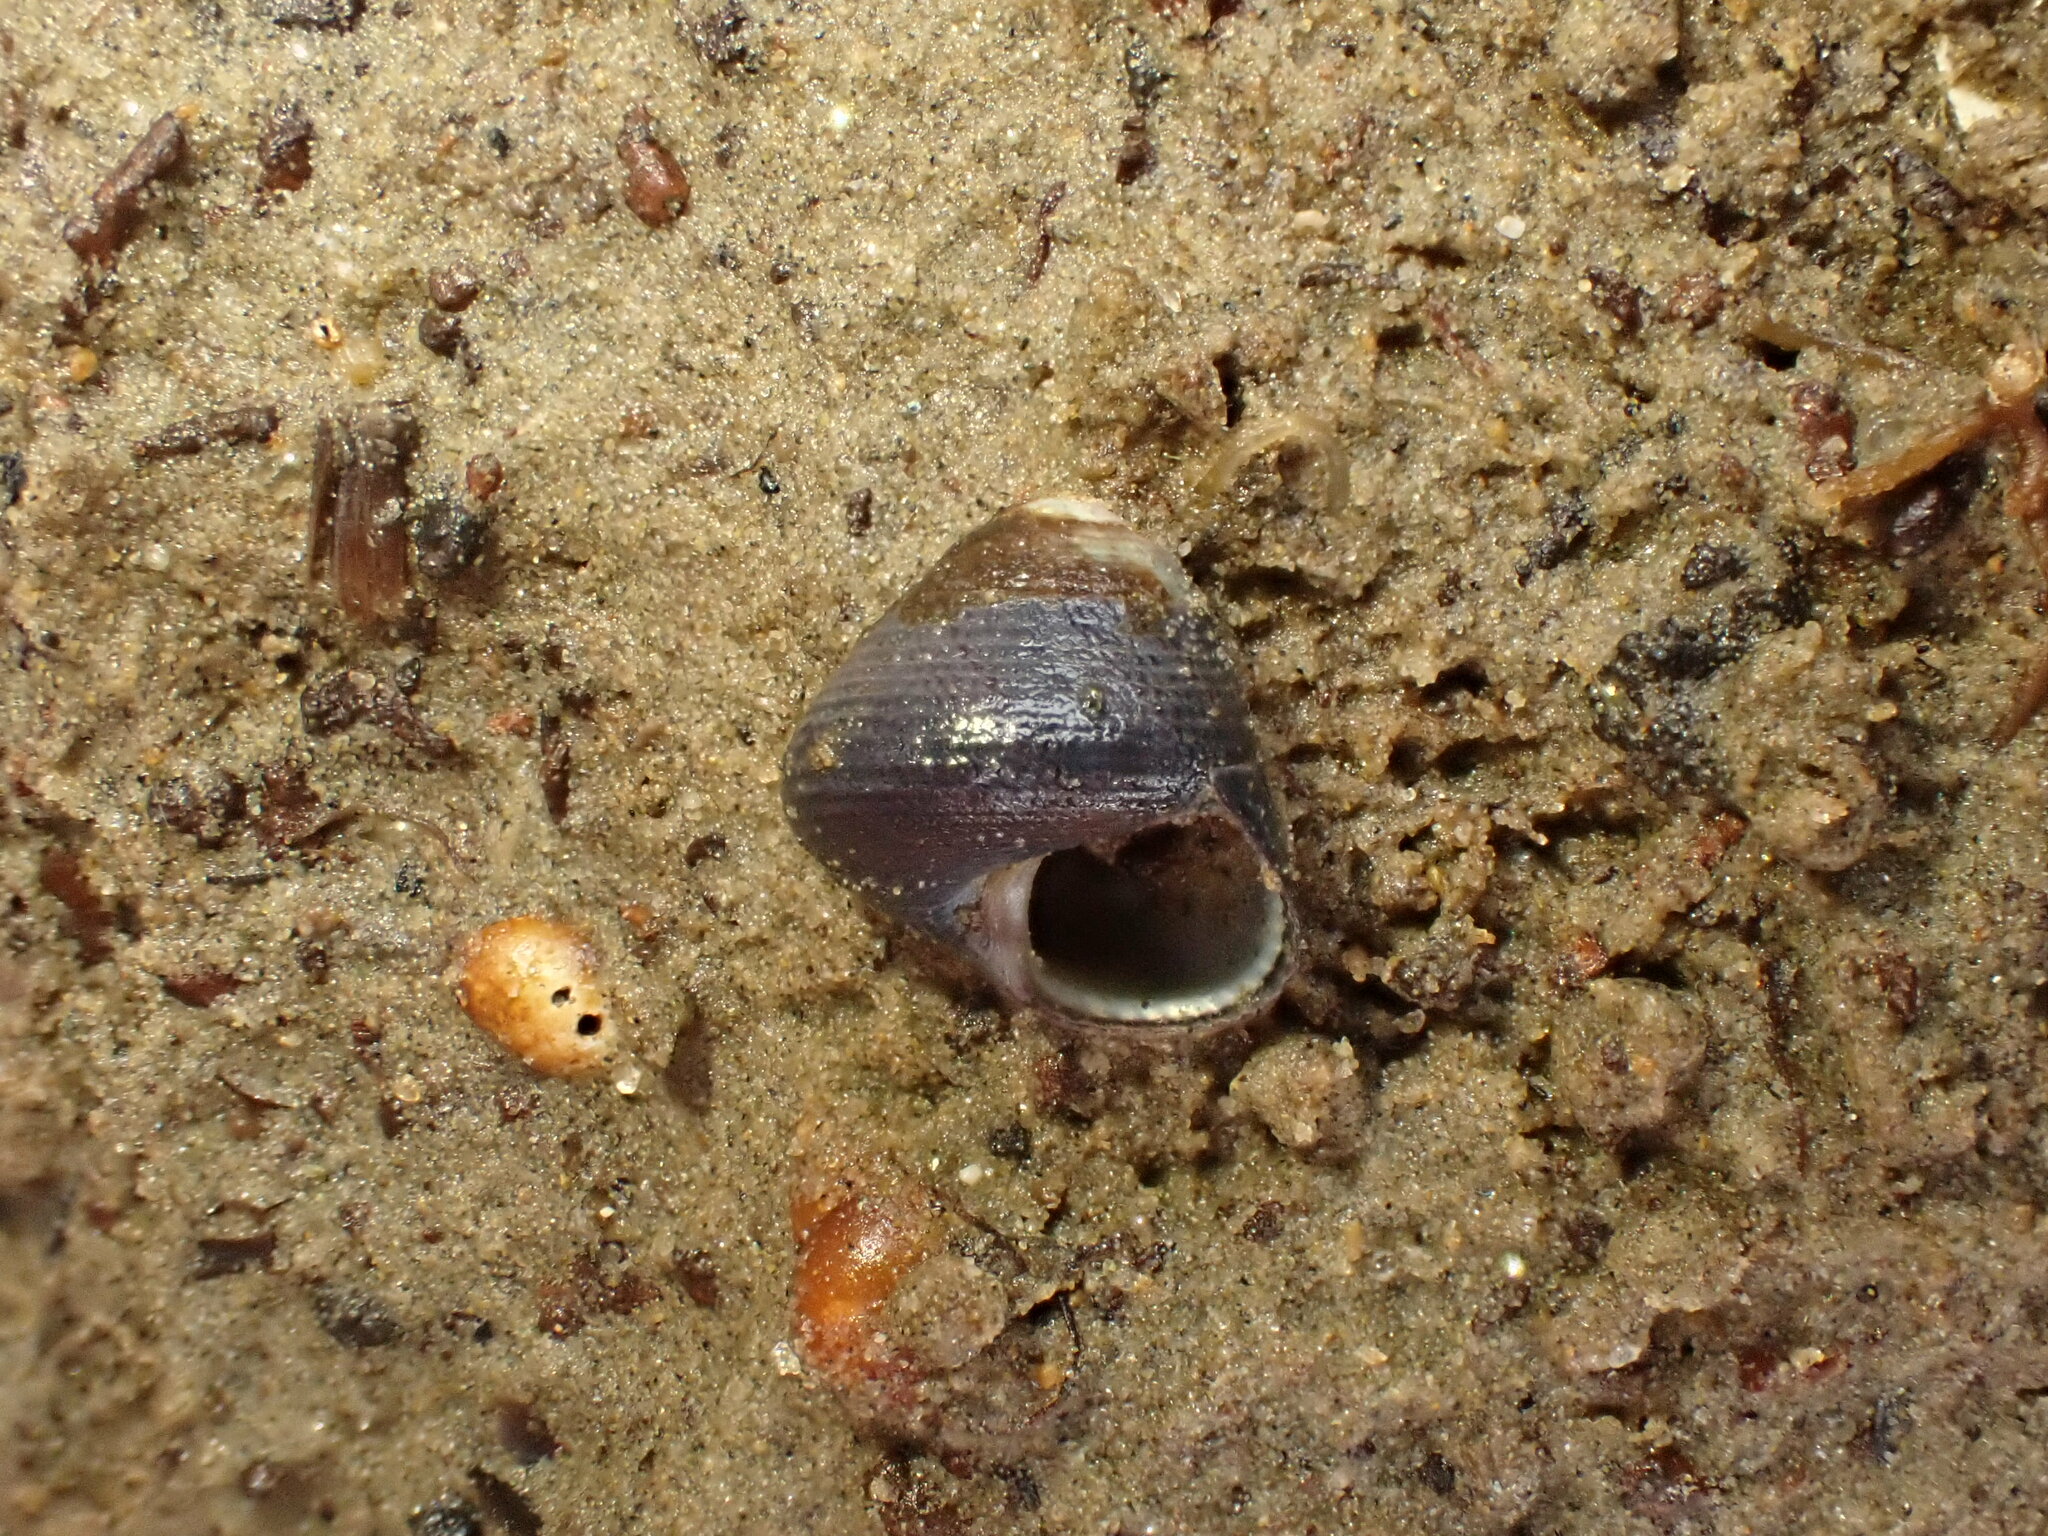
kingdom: Animalia
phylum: Mollusca
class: Gastropoda
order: Trochida
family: Trochidae
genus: Micrelenchus
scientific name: Micrelenchus huttonii
